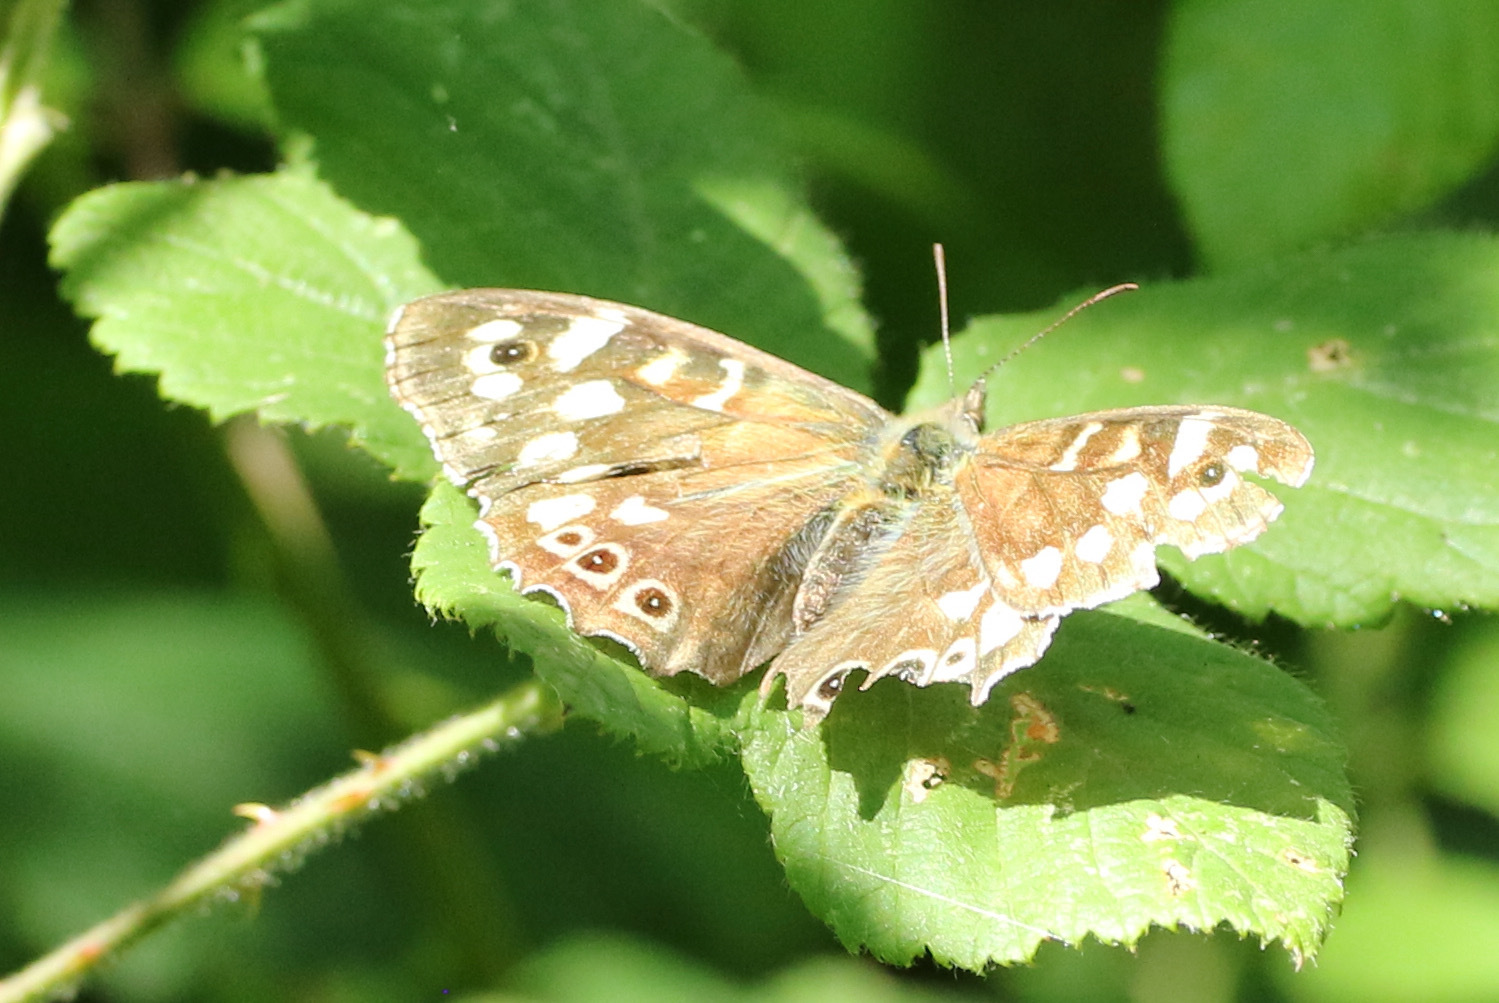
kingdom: Animalia
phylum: Arthropoda
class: Insecta
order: Lepidoptera
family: Nymphalidae
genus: Pararge
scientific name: Pararge aegeria
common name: Speckled wood
